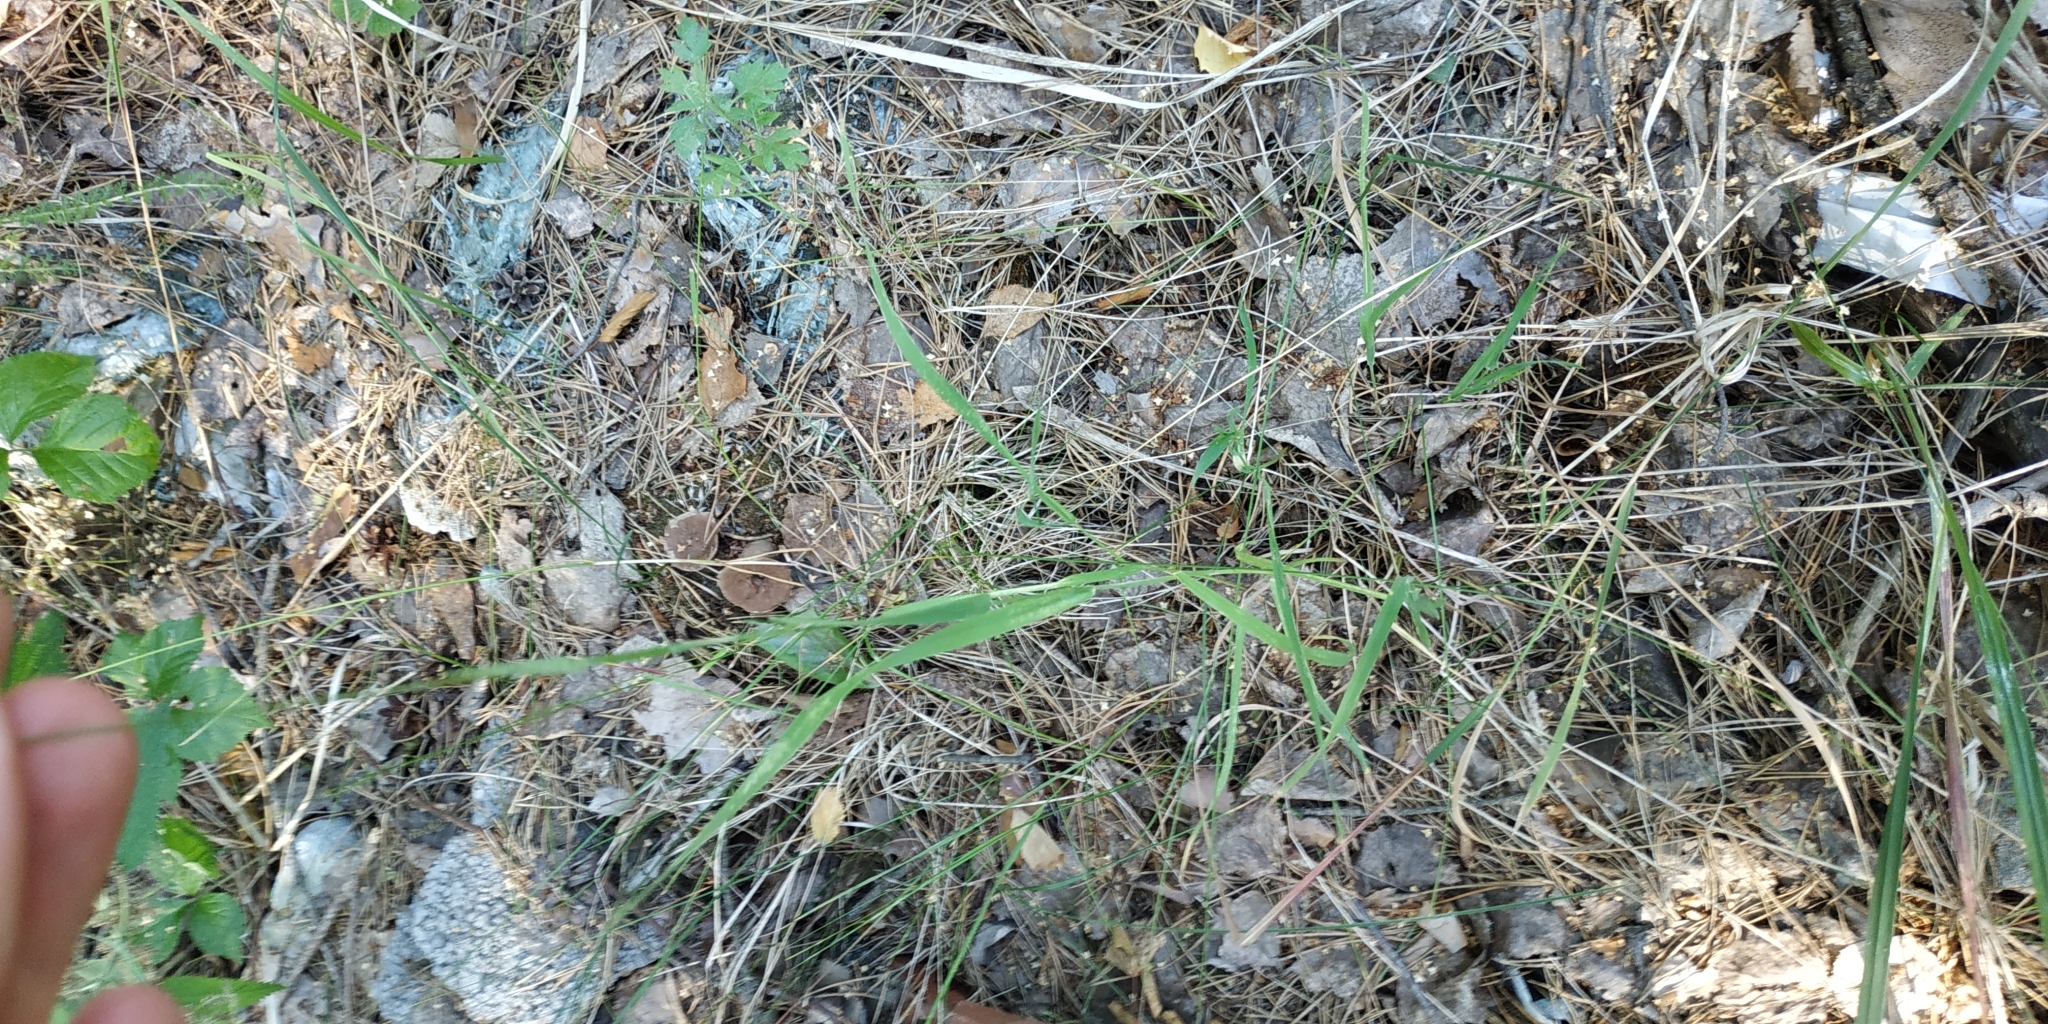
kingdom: Plantae
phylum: Tracheophyta
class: Liliopsida
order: Poales
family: Poaceae
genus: Phleum
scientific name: Phleum pratense
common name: Timothy grass
